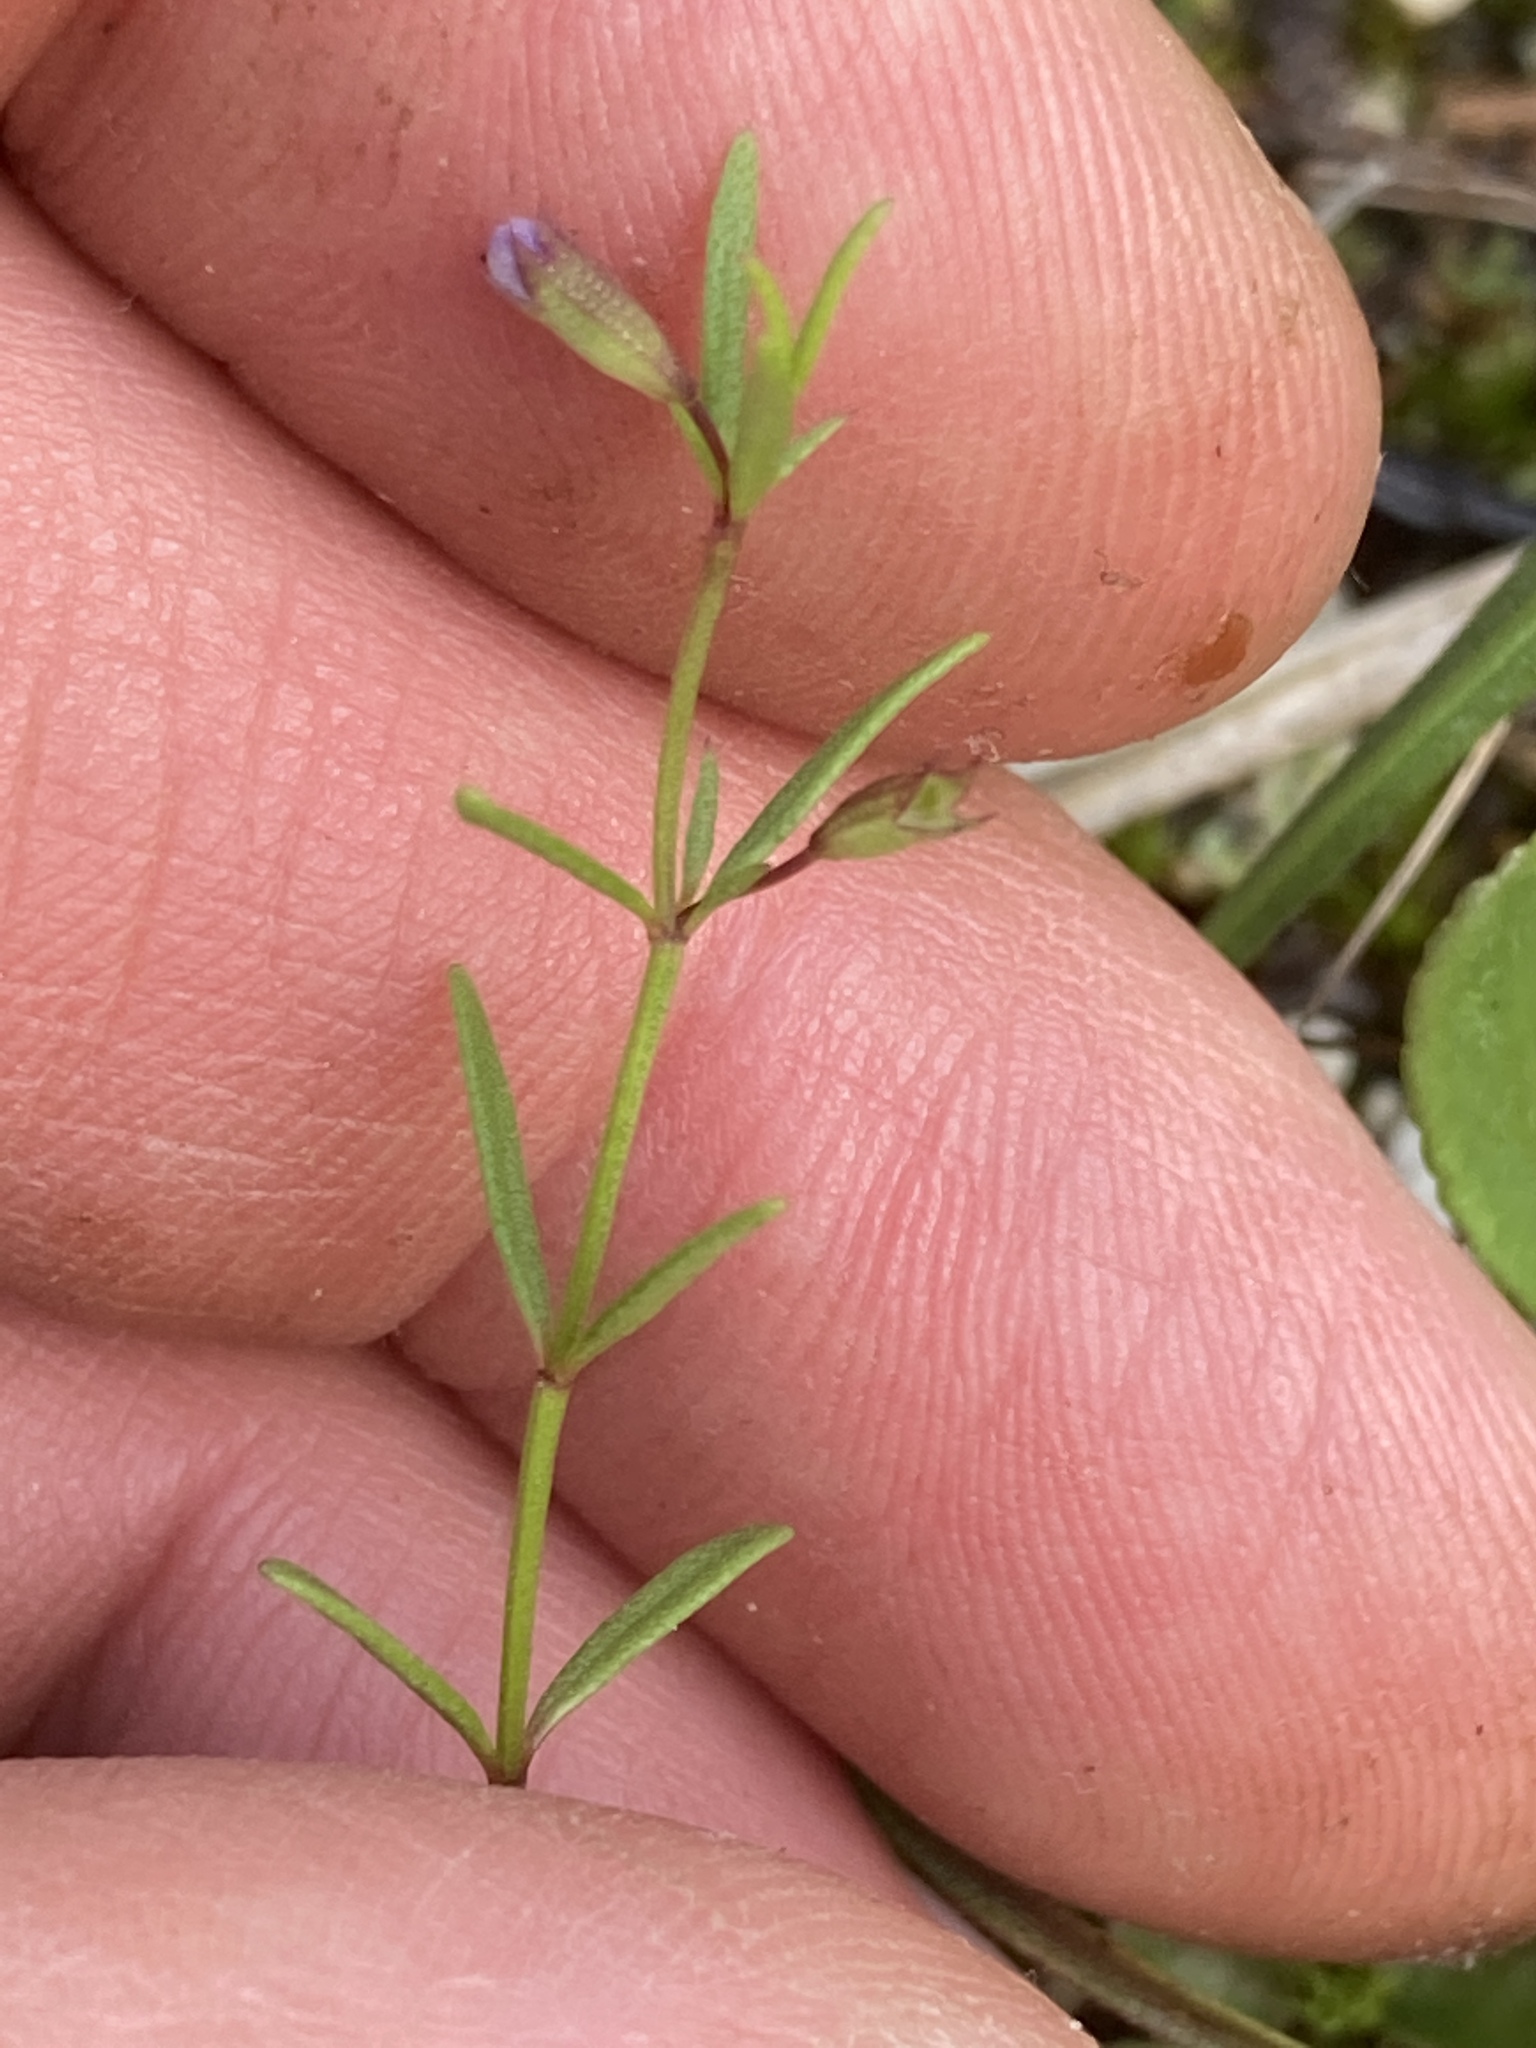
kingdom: Plantae
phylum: Tracheophyta
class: Magnoliopsida
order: Lamiales
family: Lamiaceae
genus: Clinopodium
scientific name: Clinopodium arkansanum
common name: Limestone calamint
